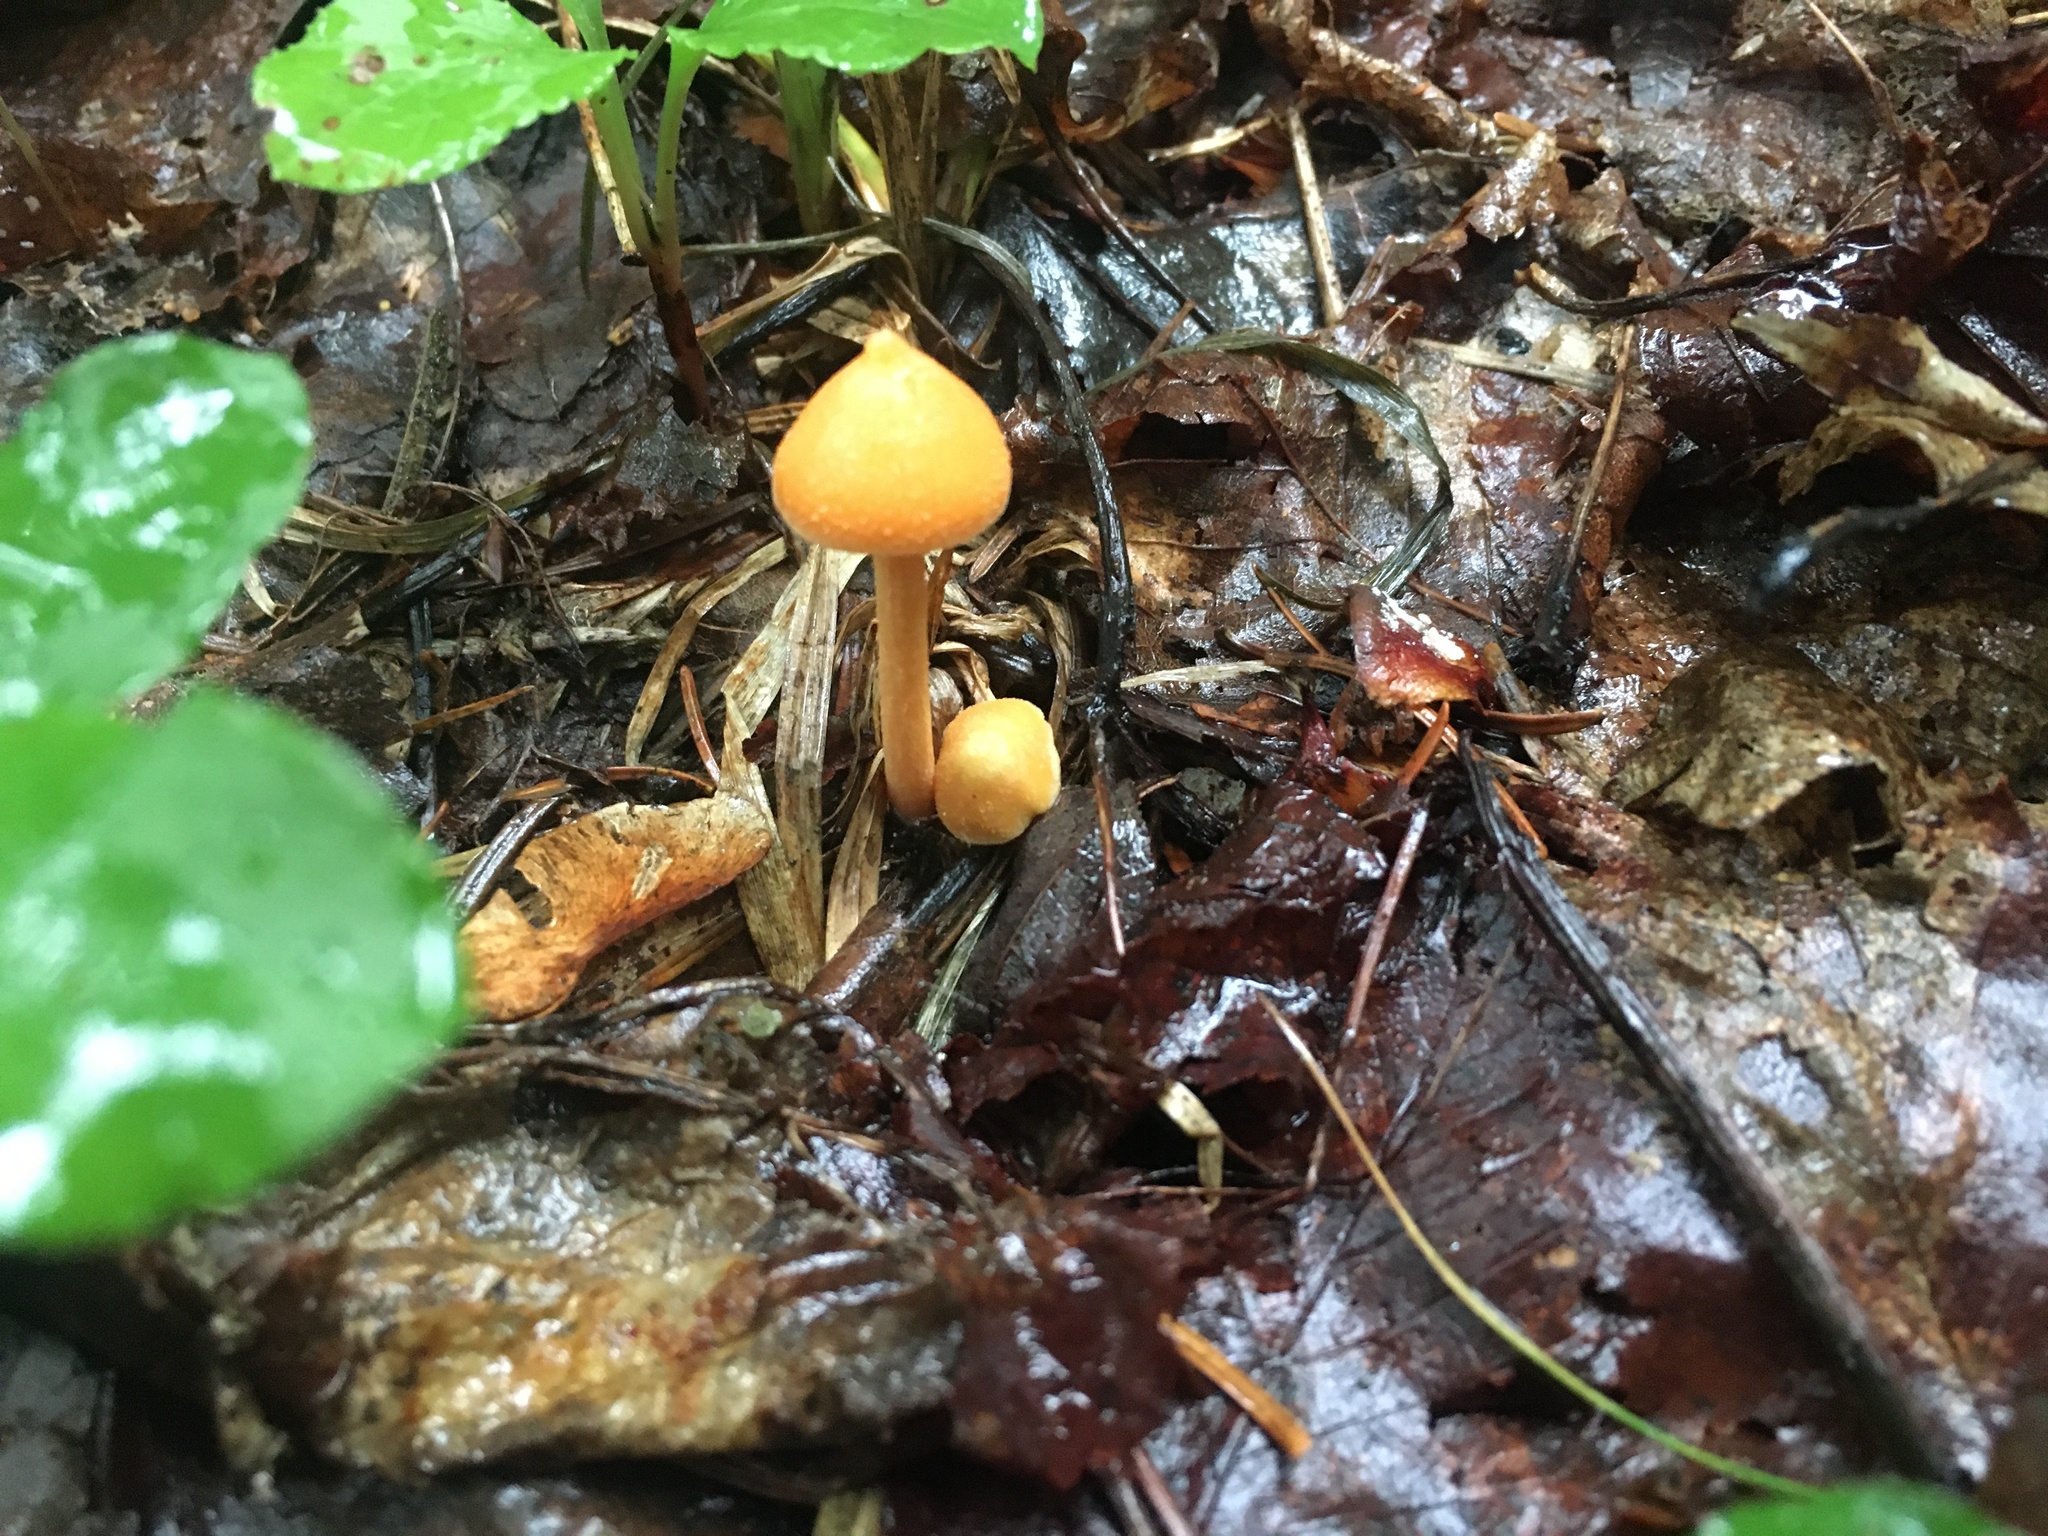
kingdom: Fungi
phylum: Basidiomycota
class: Agaricomycetes
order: Agaricales
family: Entolomataceae
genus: Entoloma
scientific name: Entoloma quadratum
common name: Salmon pinkgill
